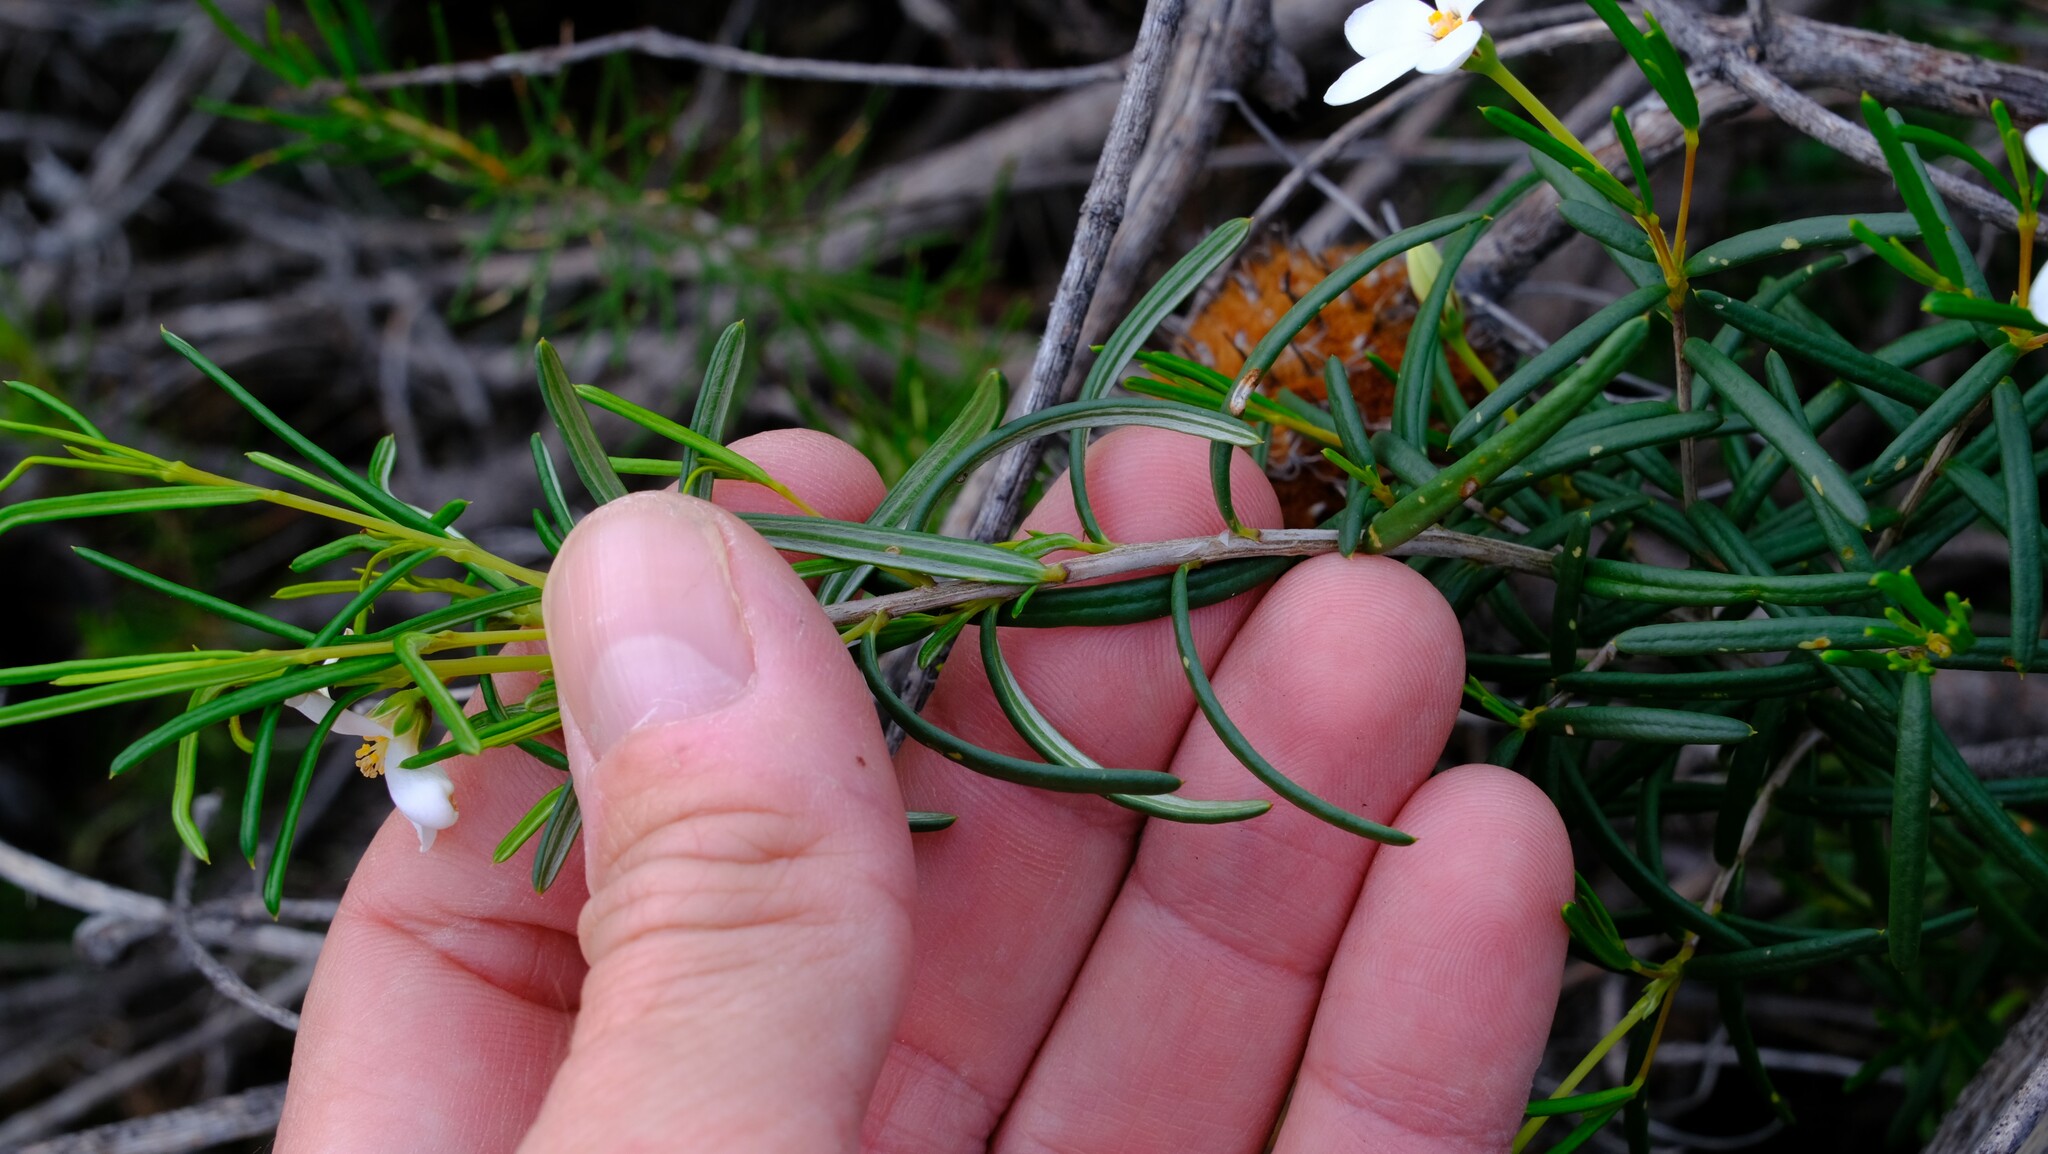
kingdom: Plantae
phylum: Tracheophyta
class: Magnoliopsida
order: Malpighiales
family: Euphorbiaceae
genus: Ricinocarpos
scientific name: Ricinocarpos undulatus
